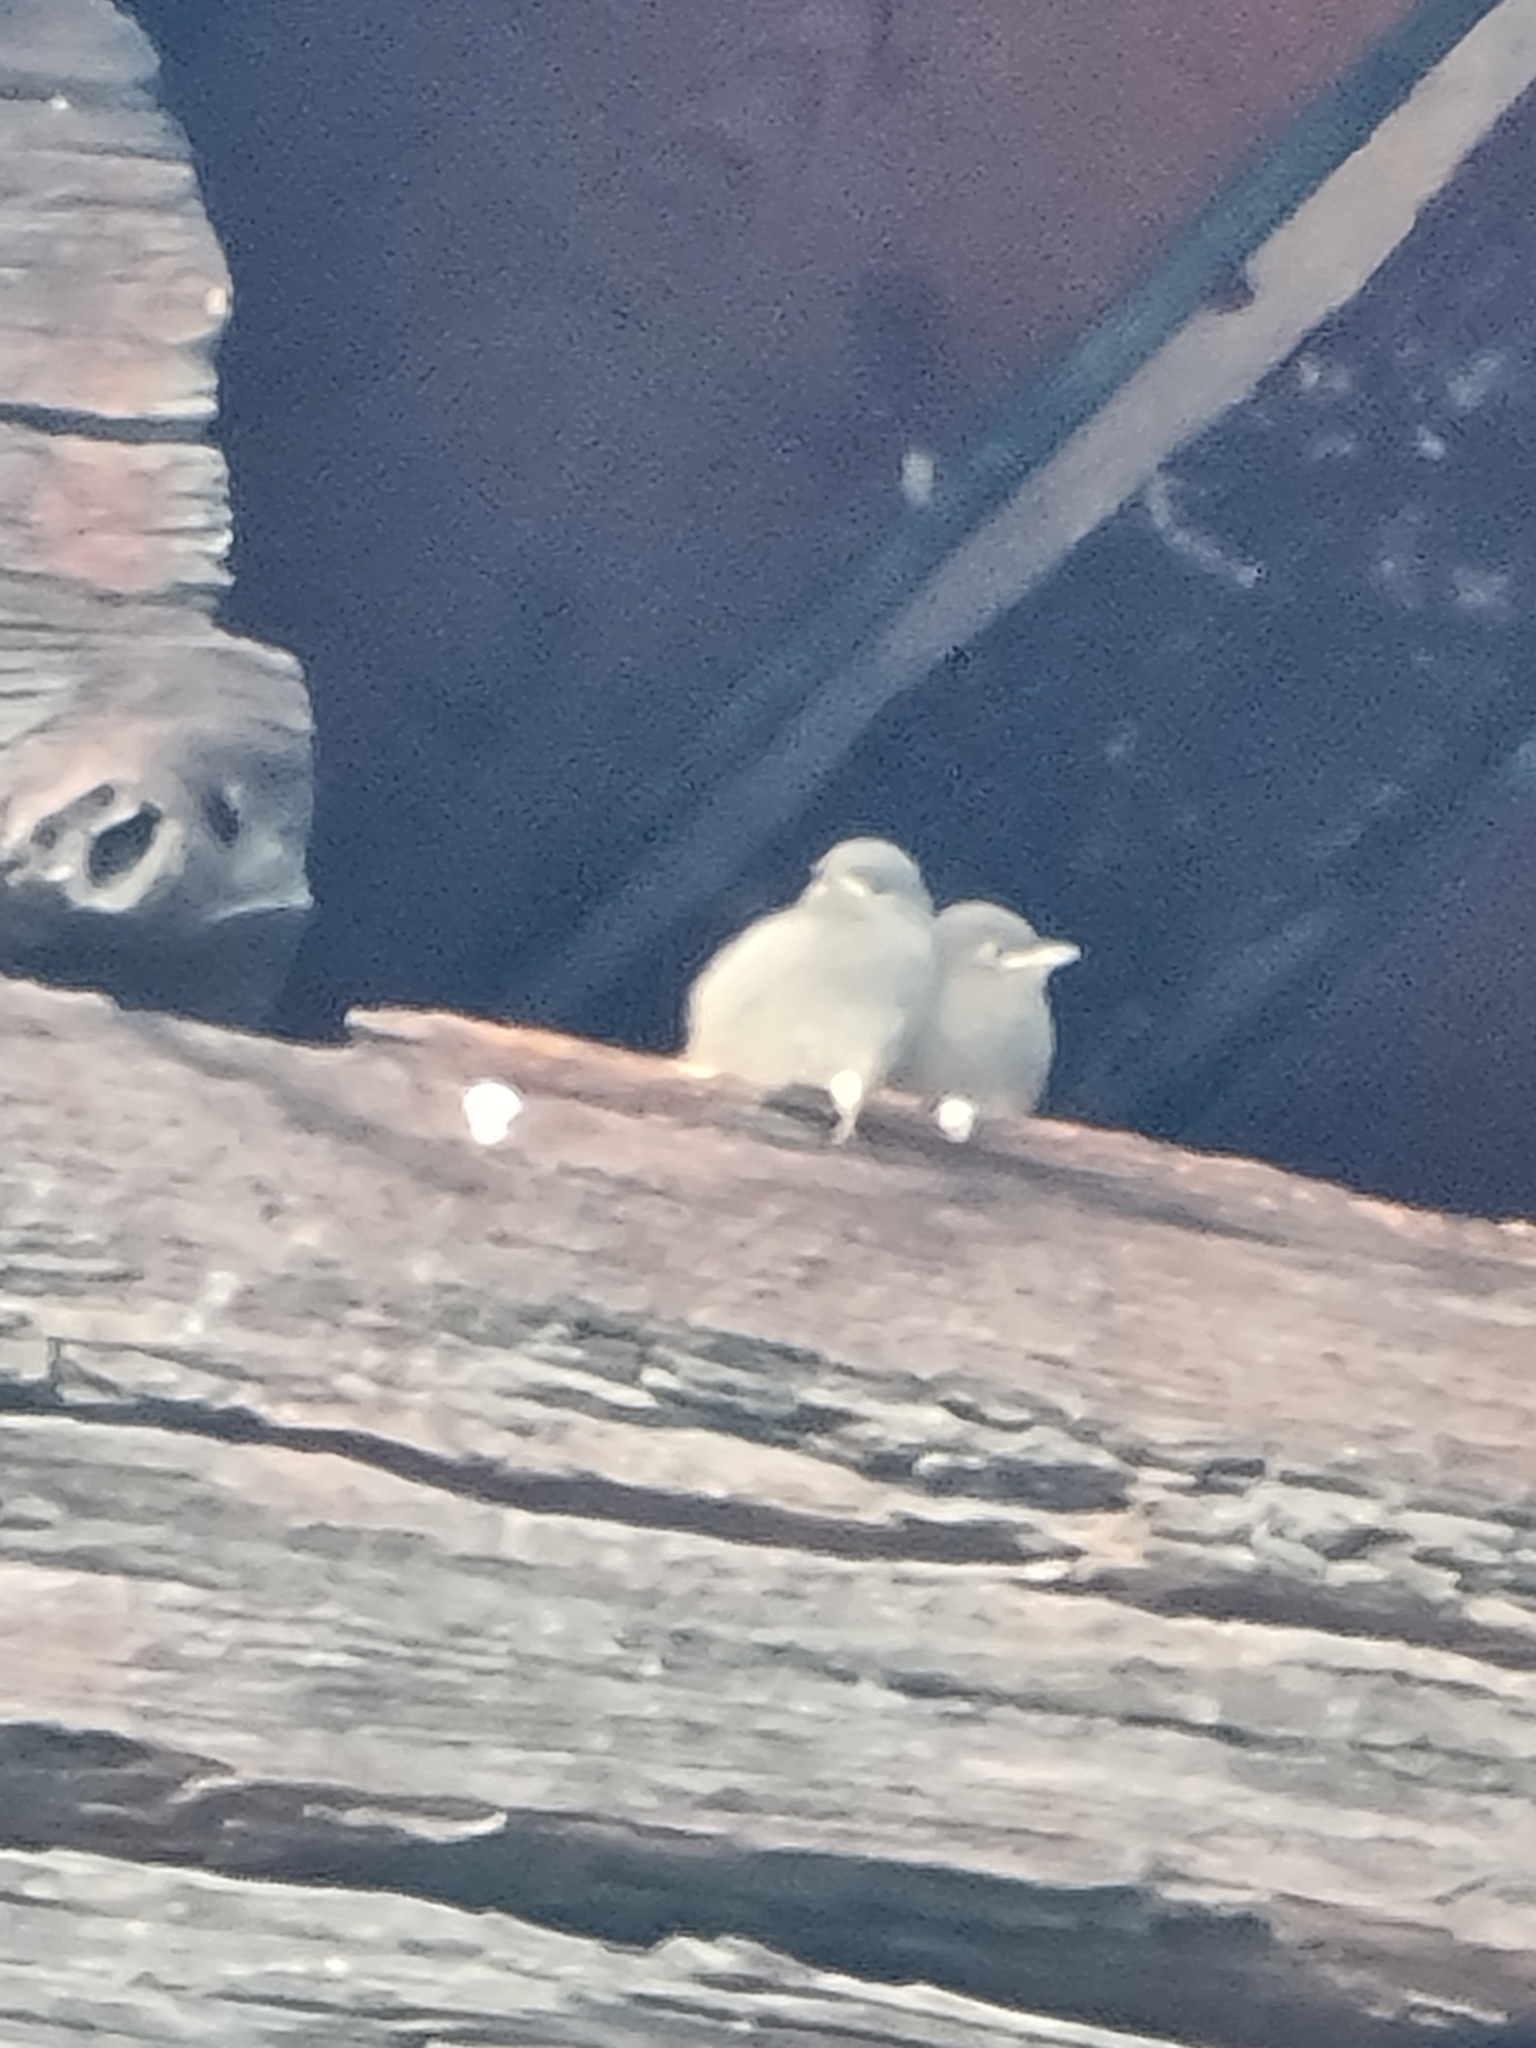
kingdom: Animalia
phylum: Chordata
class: Aves
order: Passeriformes
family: Muscicapidae
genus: Phoenicurus
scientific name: Phoenicurus ochruros
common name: Black redstart
